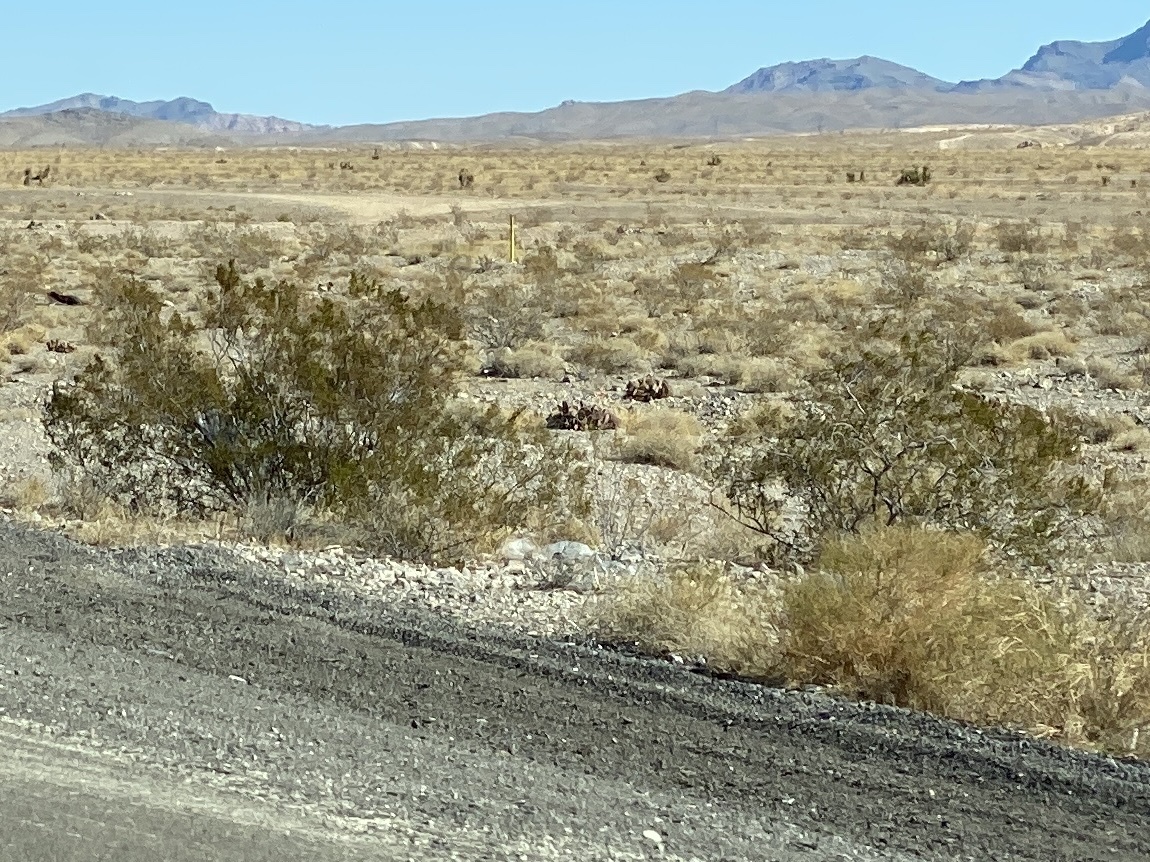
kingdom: Plantae
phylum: Tracheophyta
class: Magnoliopsida
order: Zygophyllales
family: Zygophyllaceae
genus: Larrea
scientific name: Larrea tridentata
